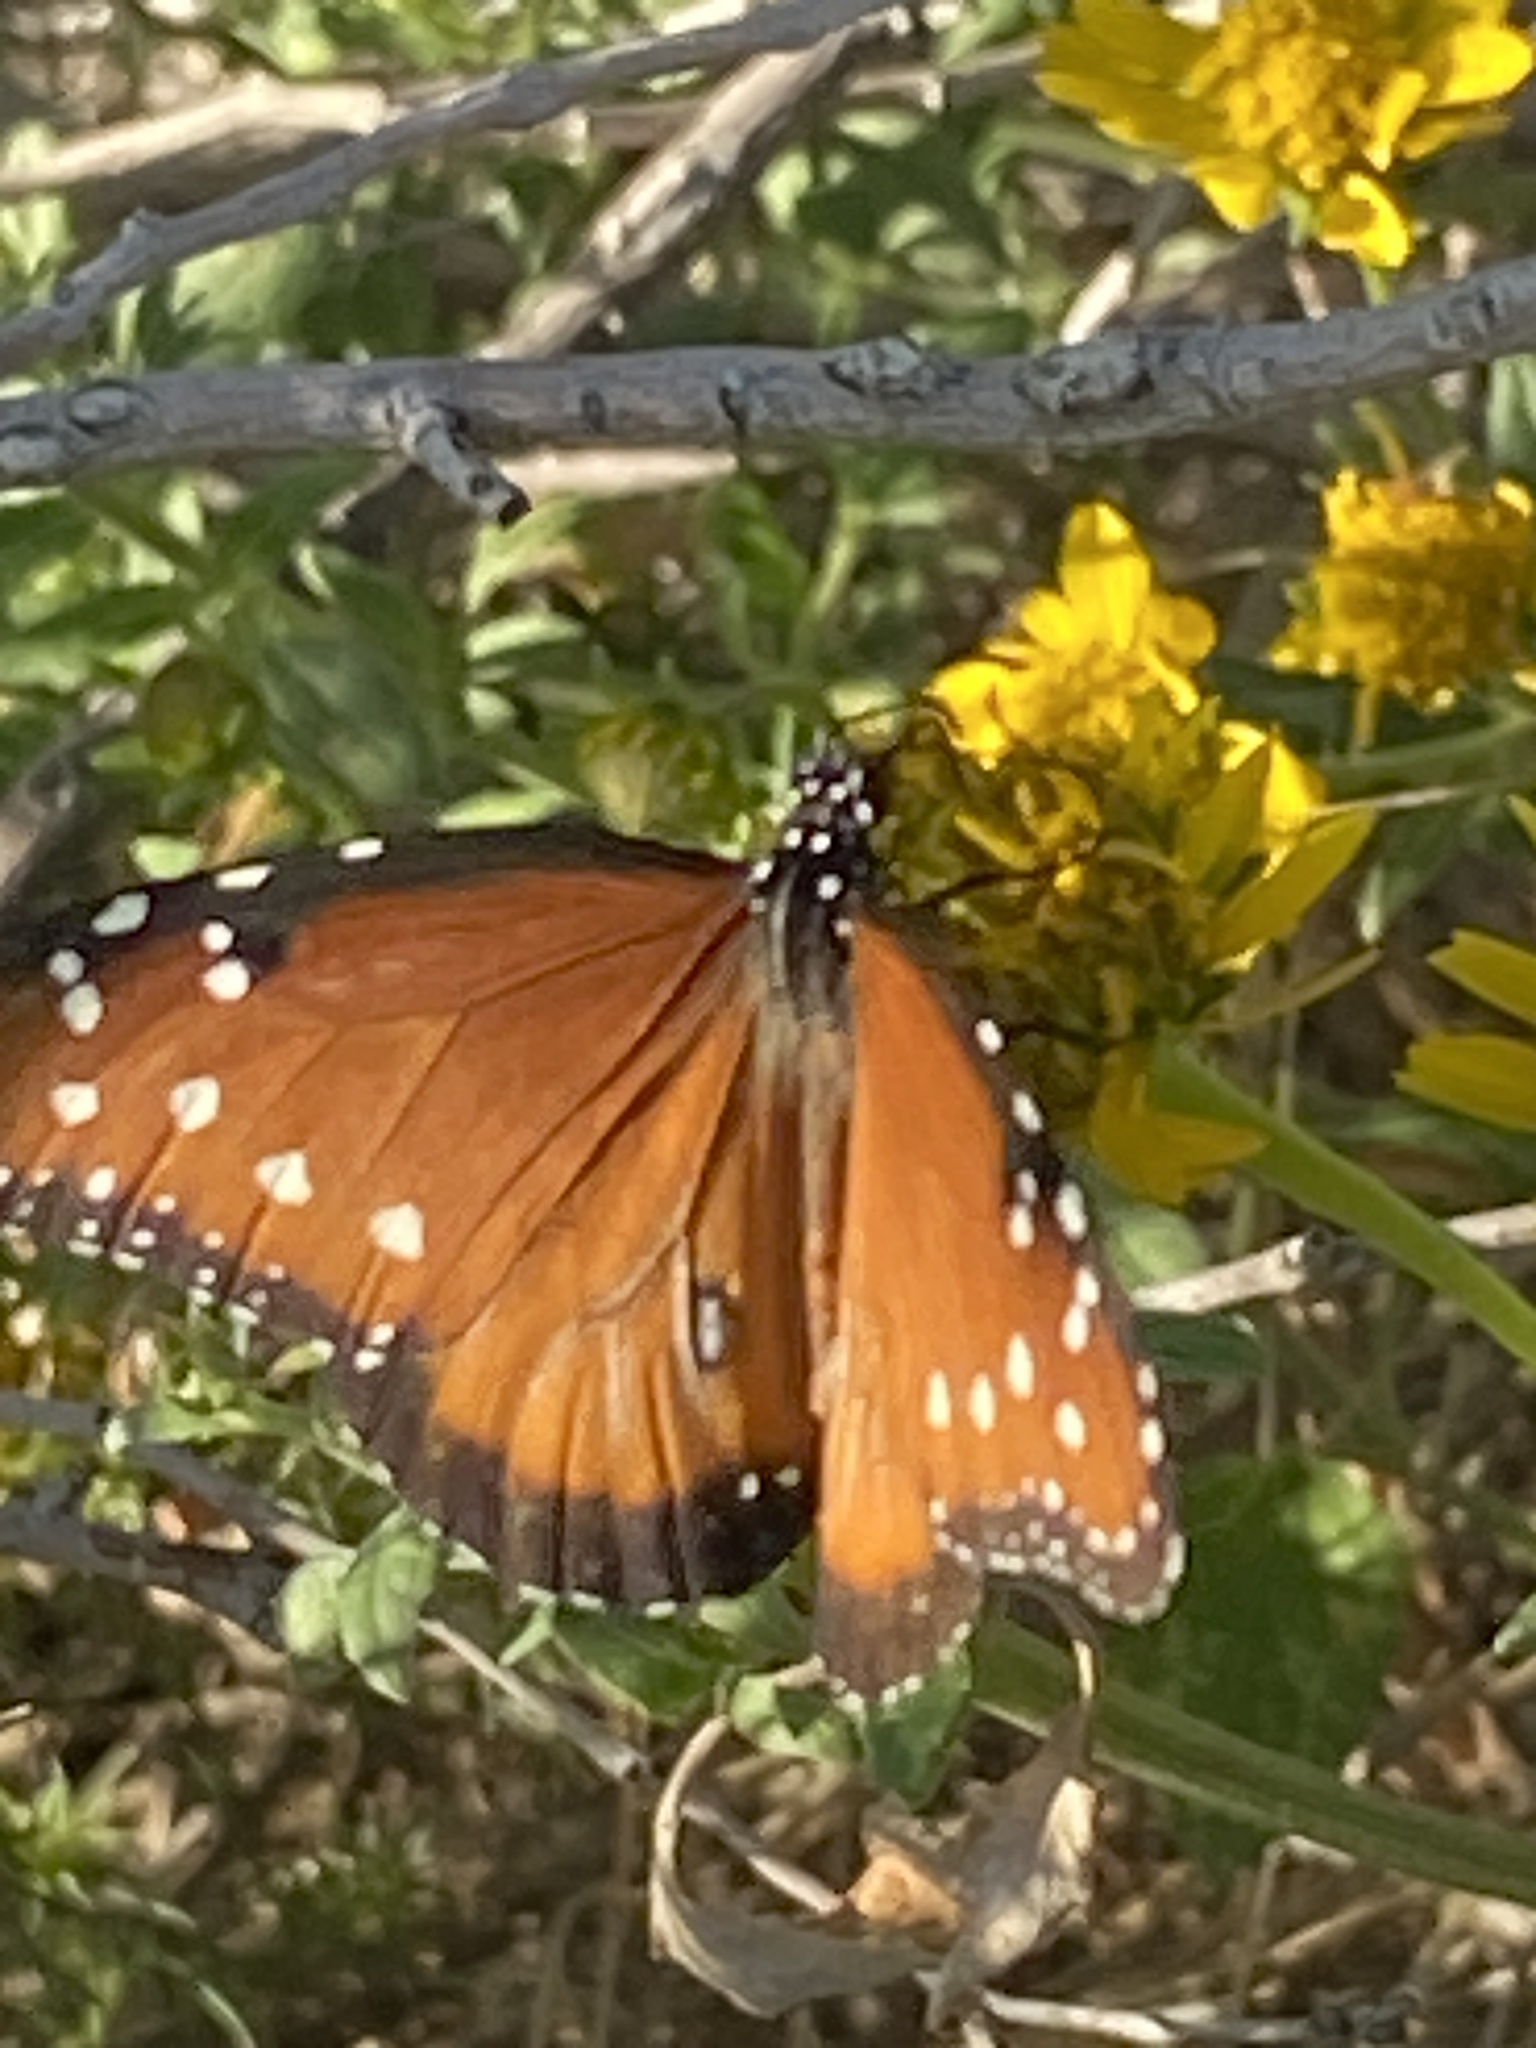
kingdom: Animalia
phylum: Arthropoda
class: Insecta
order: Lepidoptera
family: Nymphalidae
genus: Danaus
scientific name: Danaus gilippus
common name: Queen
